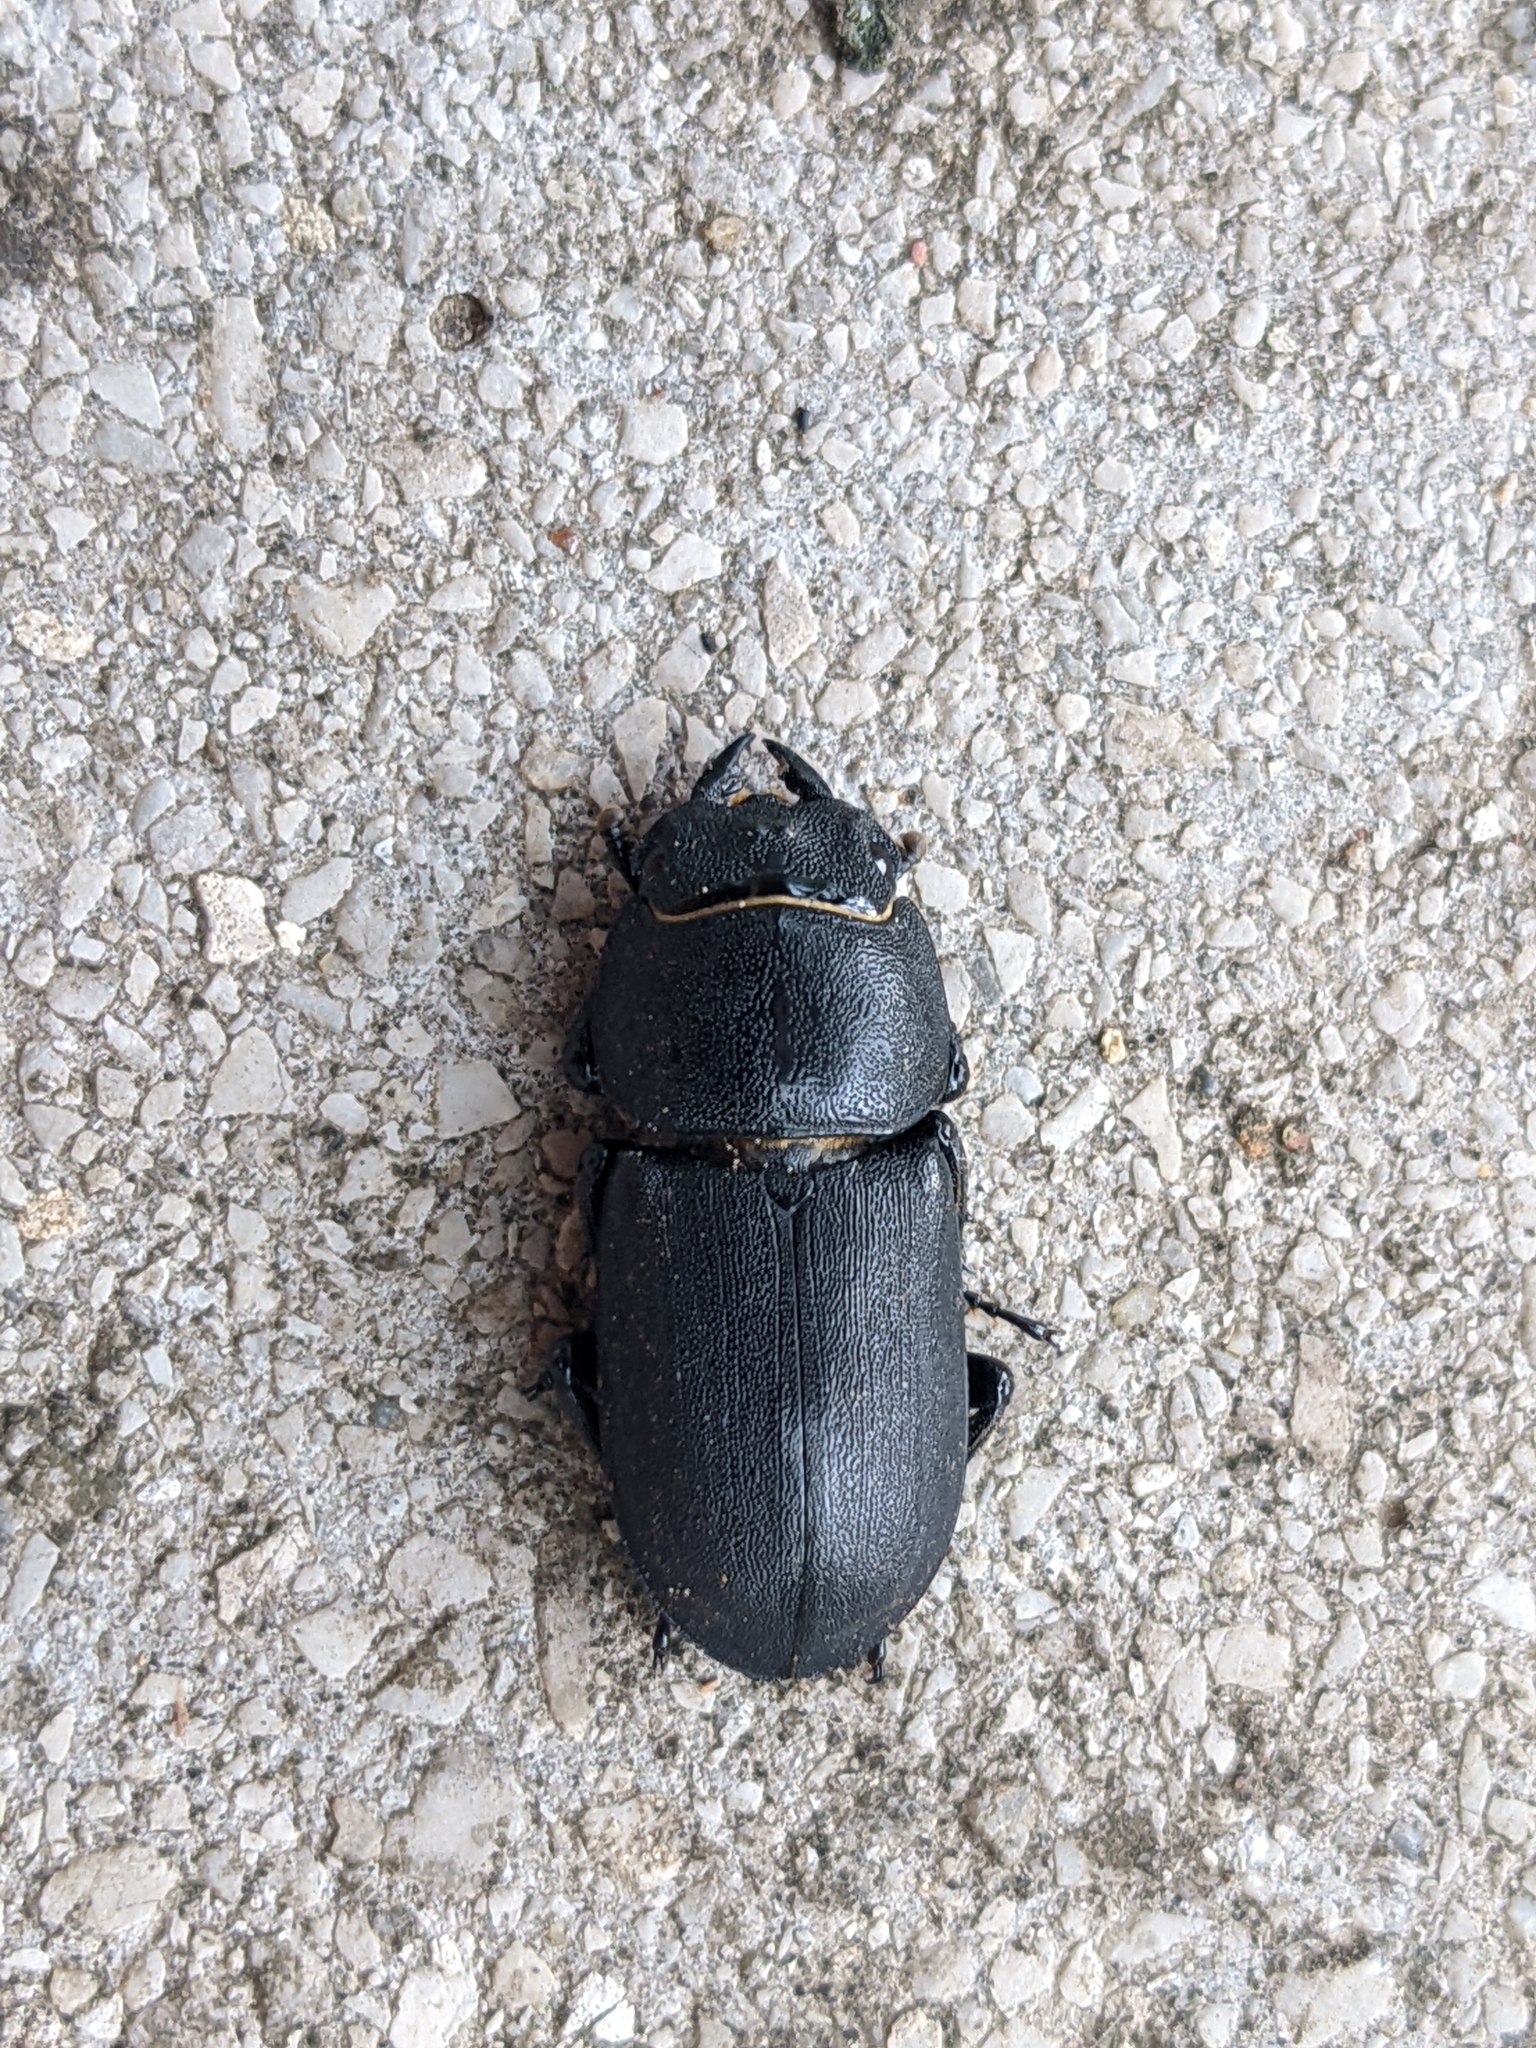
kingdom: Animalia
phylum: Arthropoda
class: Insecta
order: Coleoptera
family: Lucanidae
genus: Dorcus
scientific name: Dorcus parallelipipedus
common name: Lesser stag beetle
